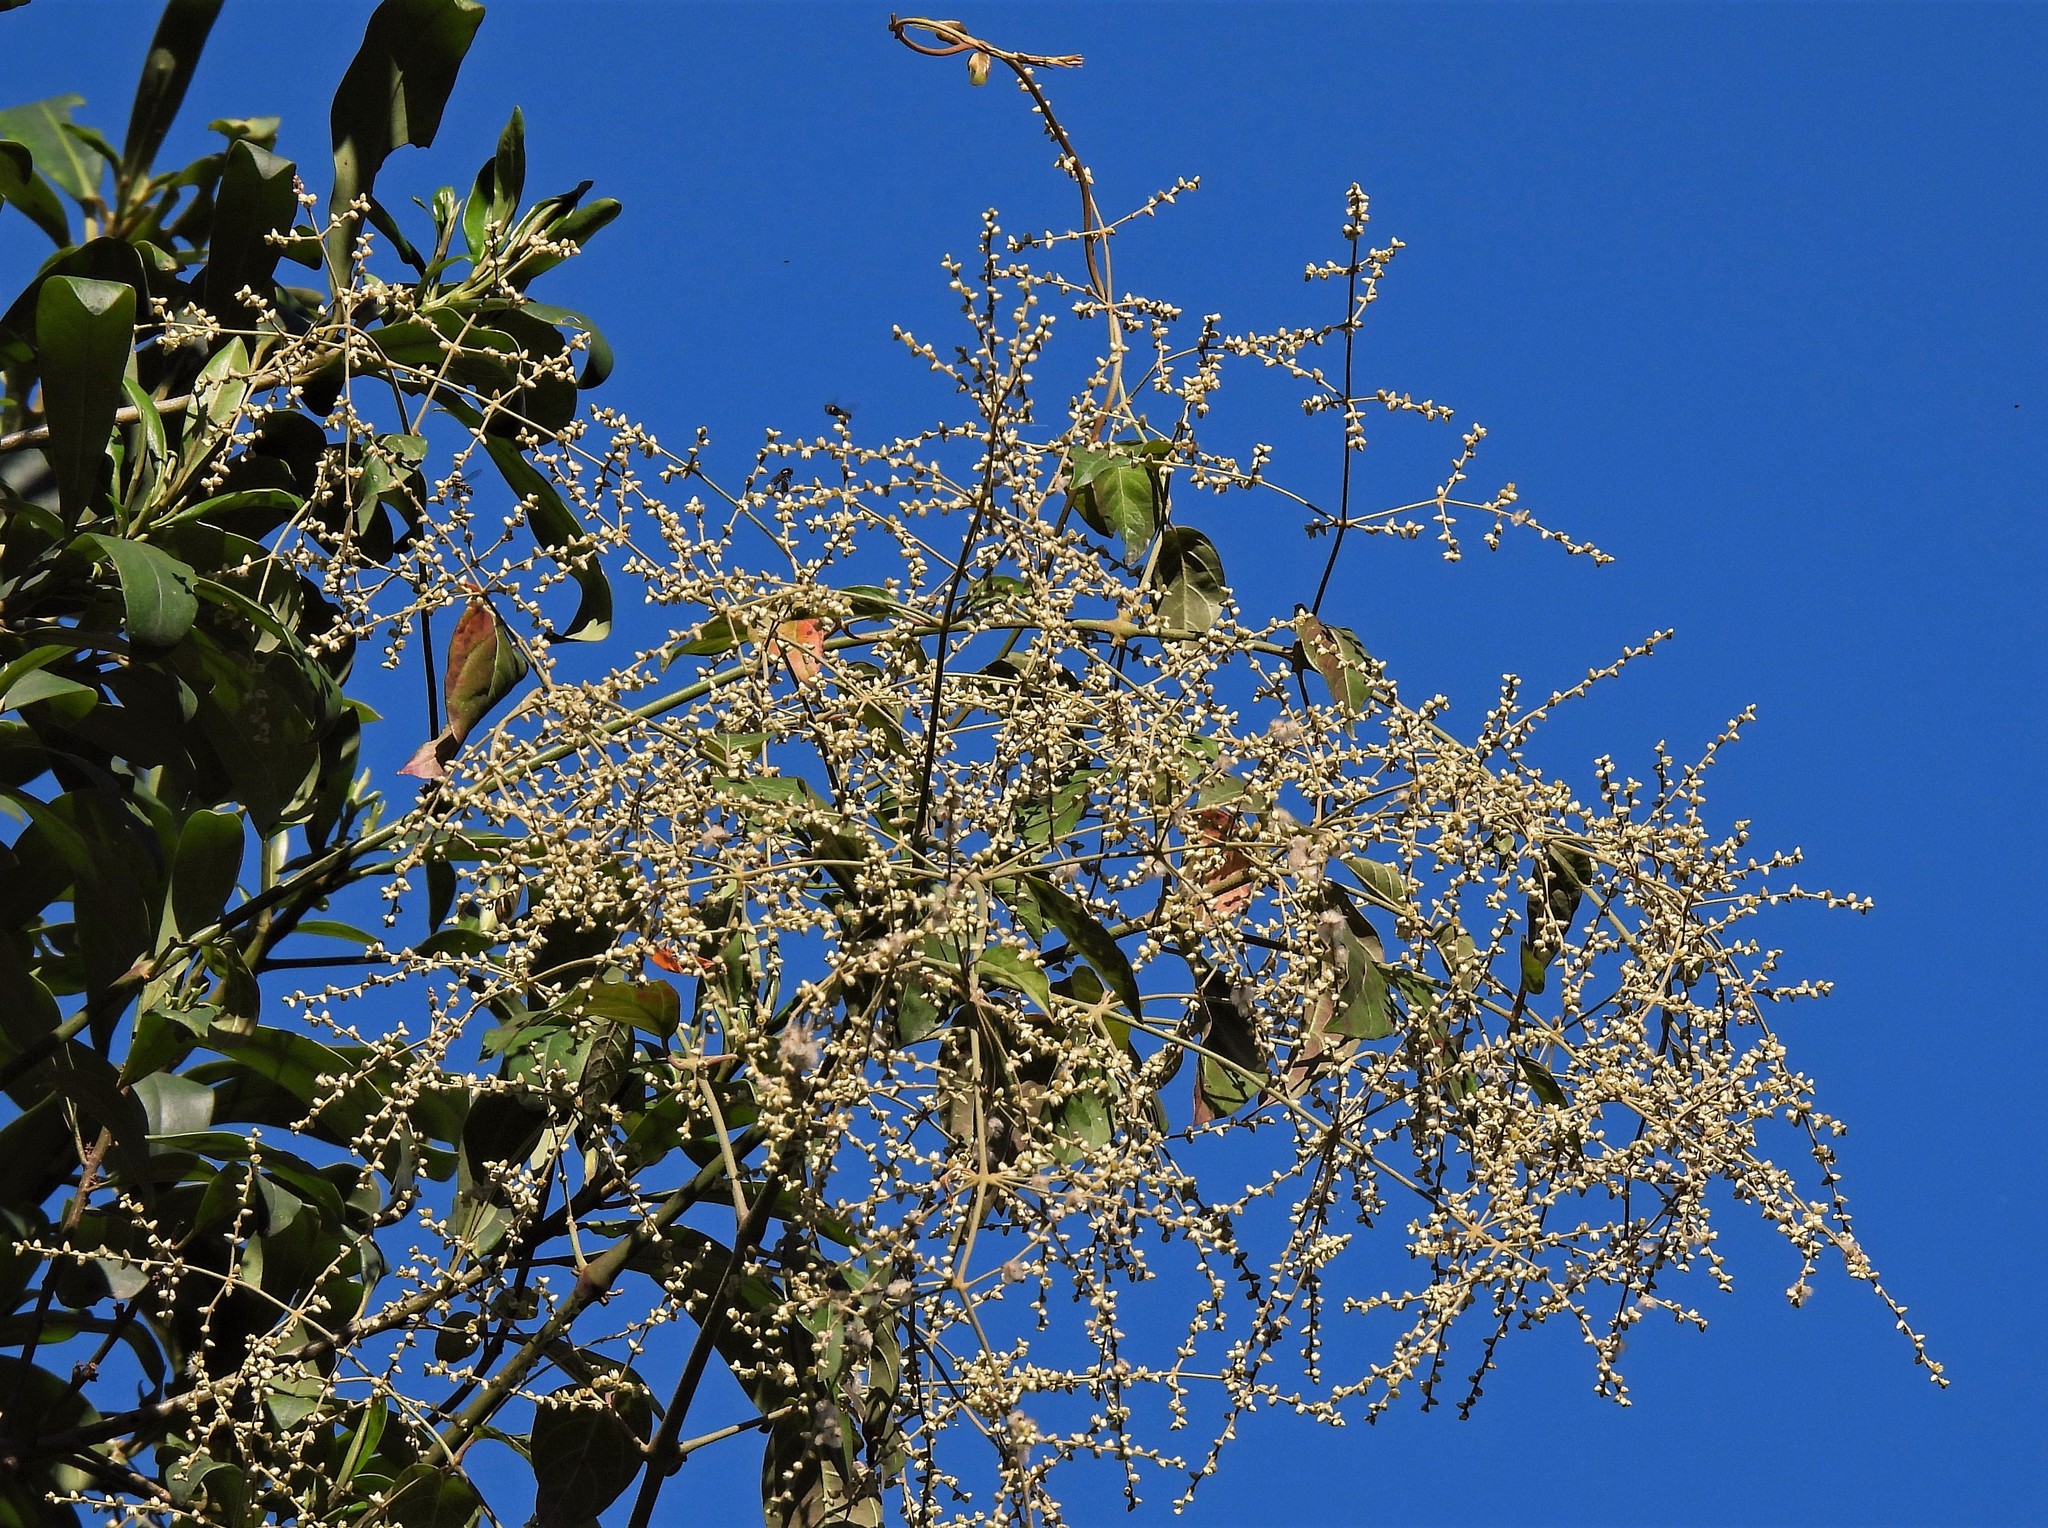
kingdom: Plantae
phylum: Tracheophyta
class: Magnoliopsida
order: Caryophyllales
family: Amaranthaceae
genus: Chamissoa
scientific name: Chamissoa altissima
